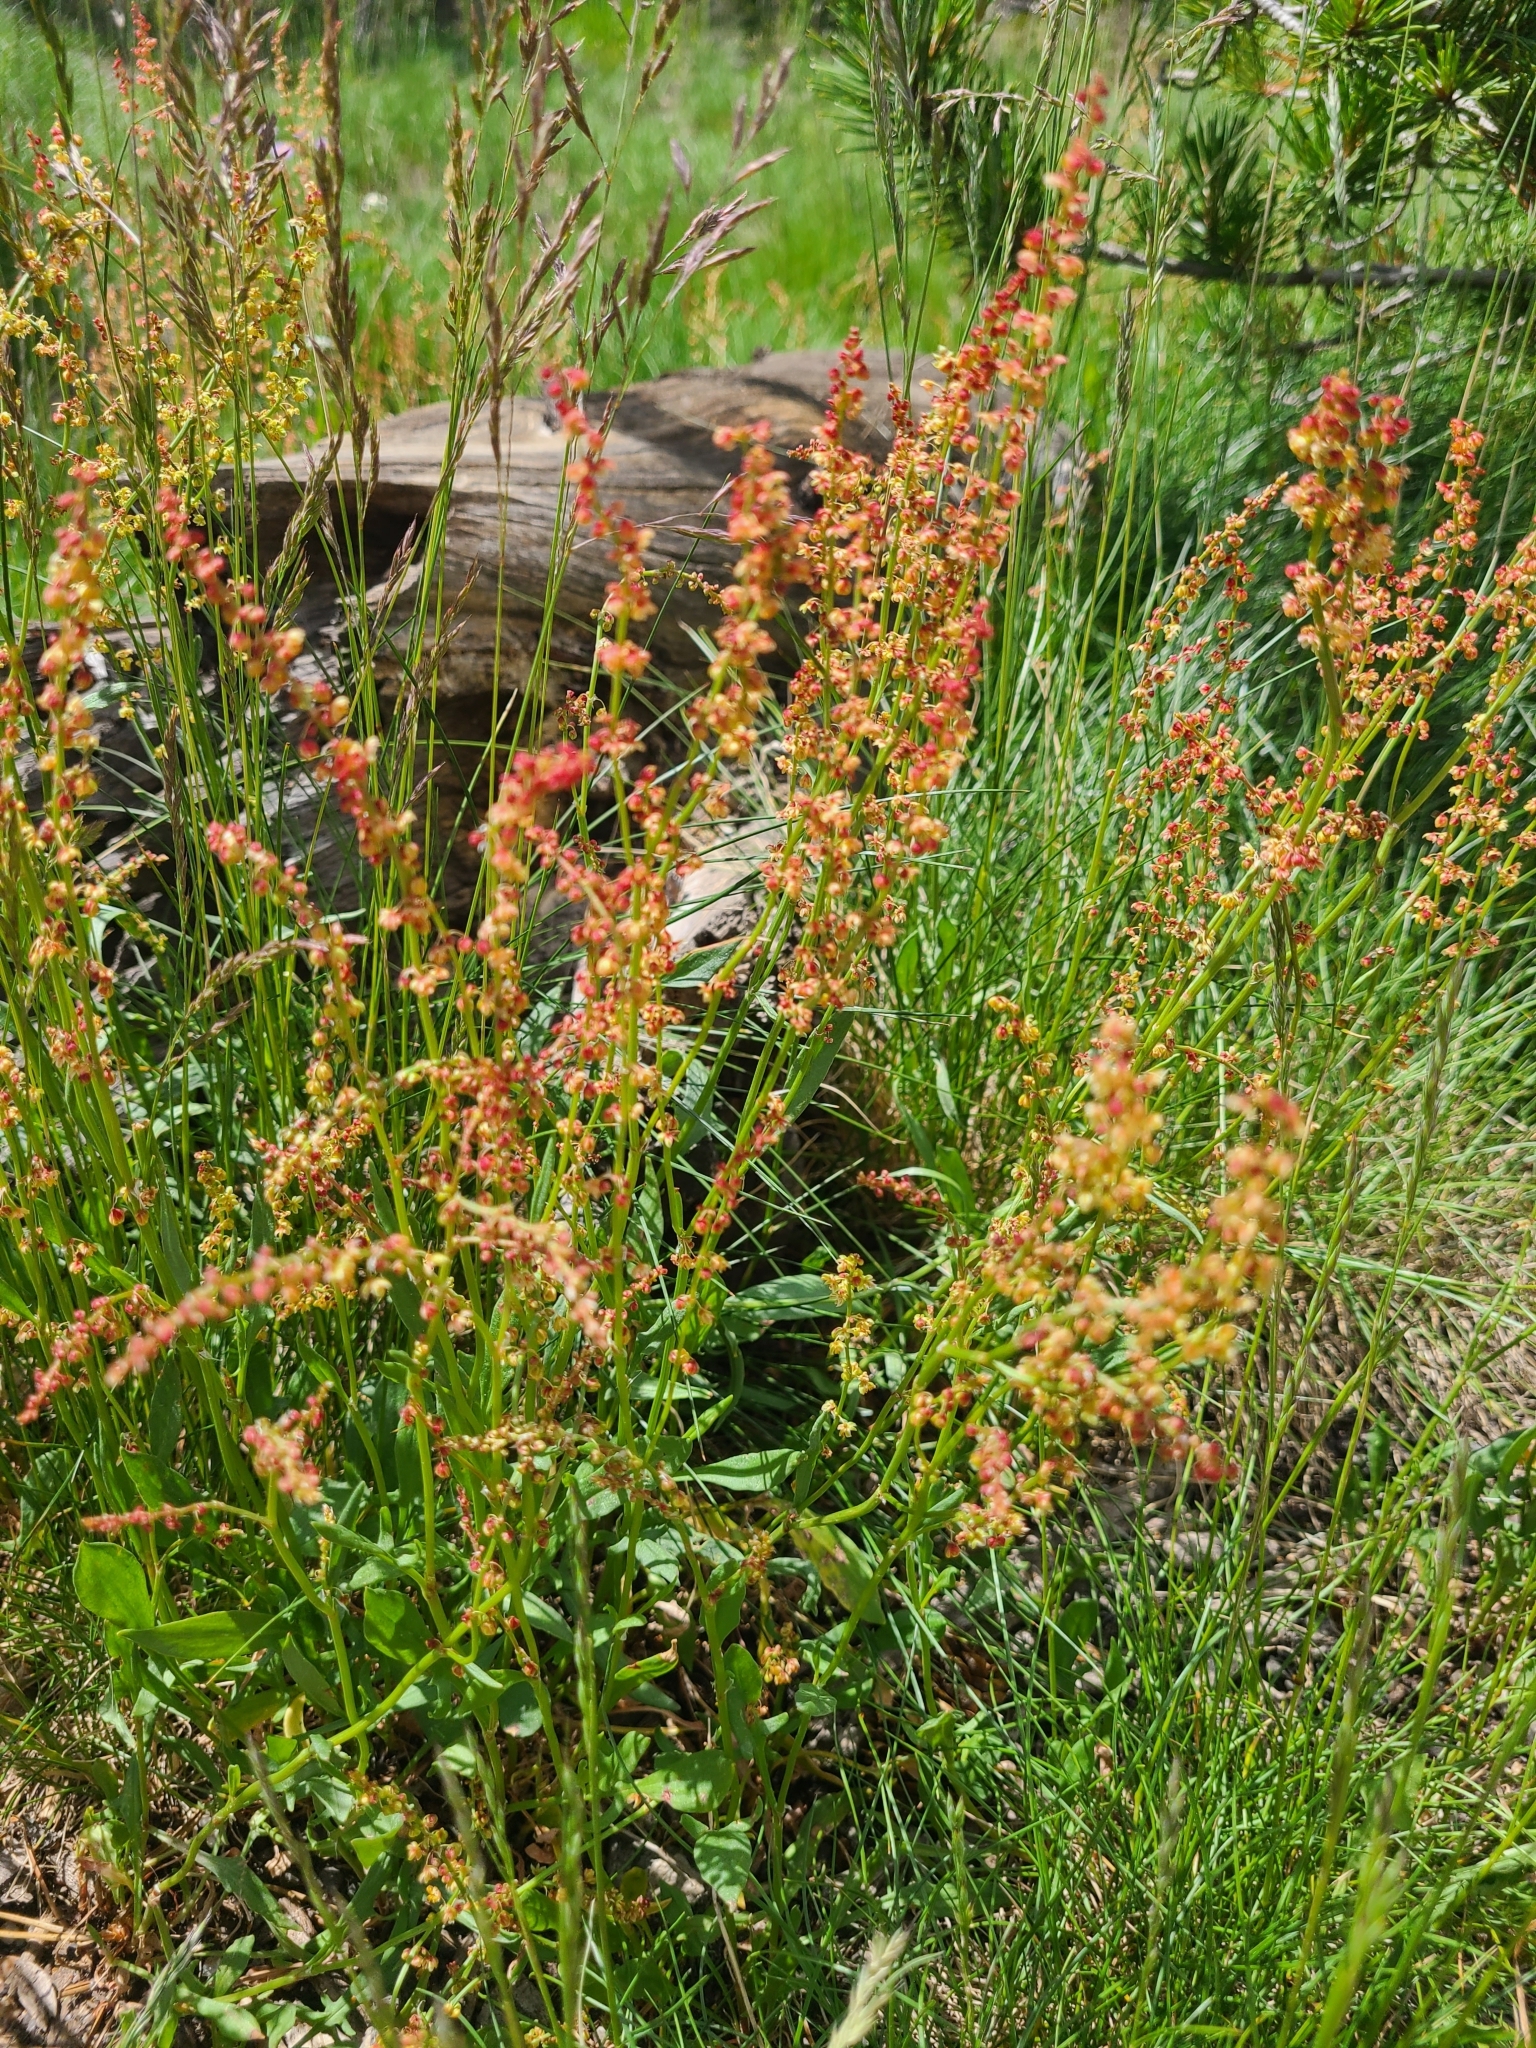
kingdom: Plantae
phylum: Tracheophyta
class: Magnoliopsida
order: Caryophyllales
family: Polygonaceae
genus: Rumex
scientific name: Rumex acetosella
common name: Common sheep sorrel
